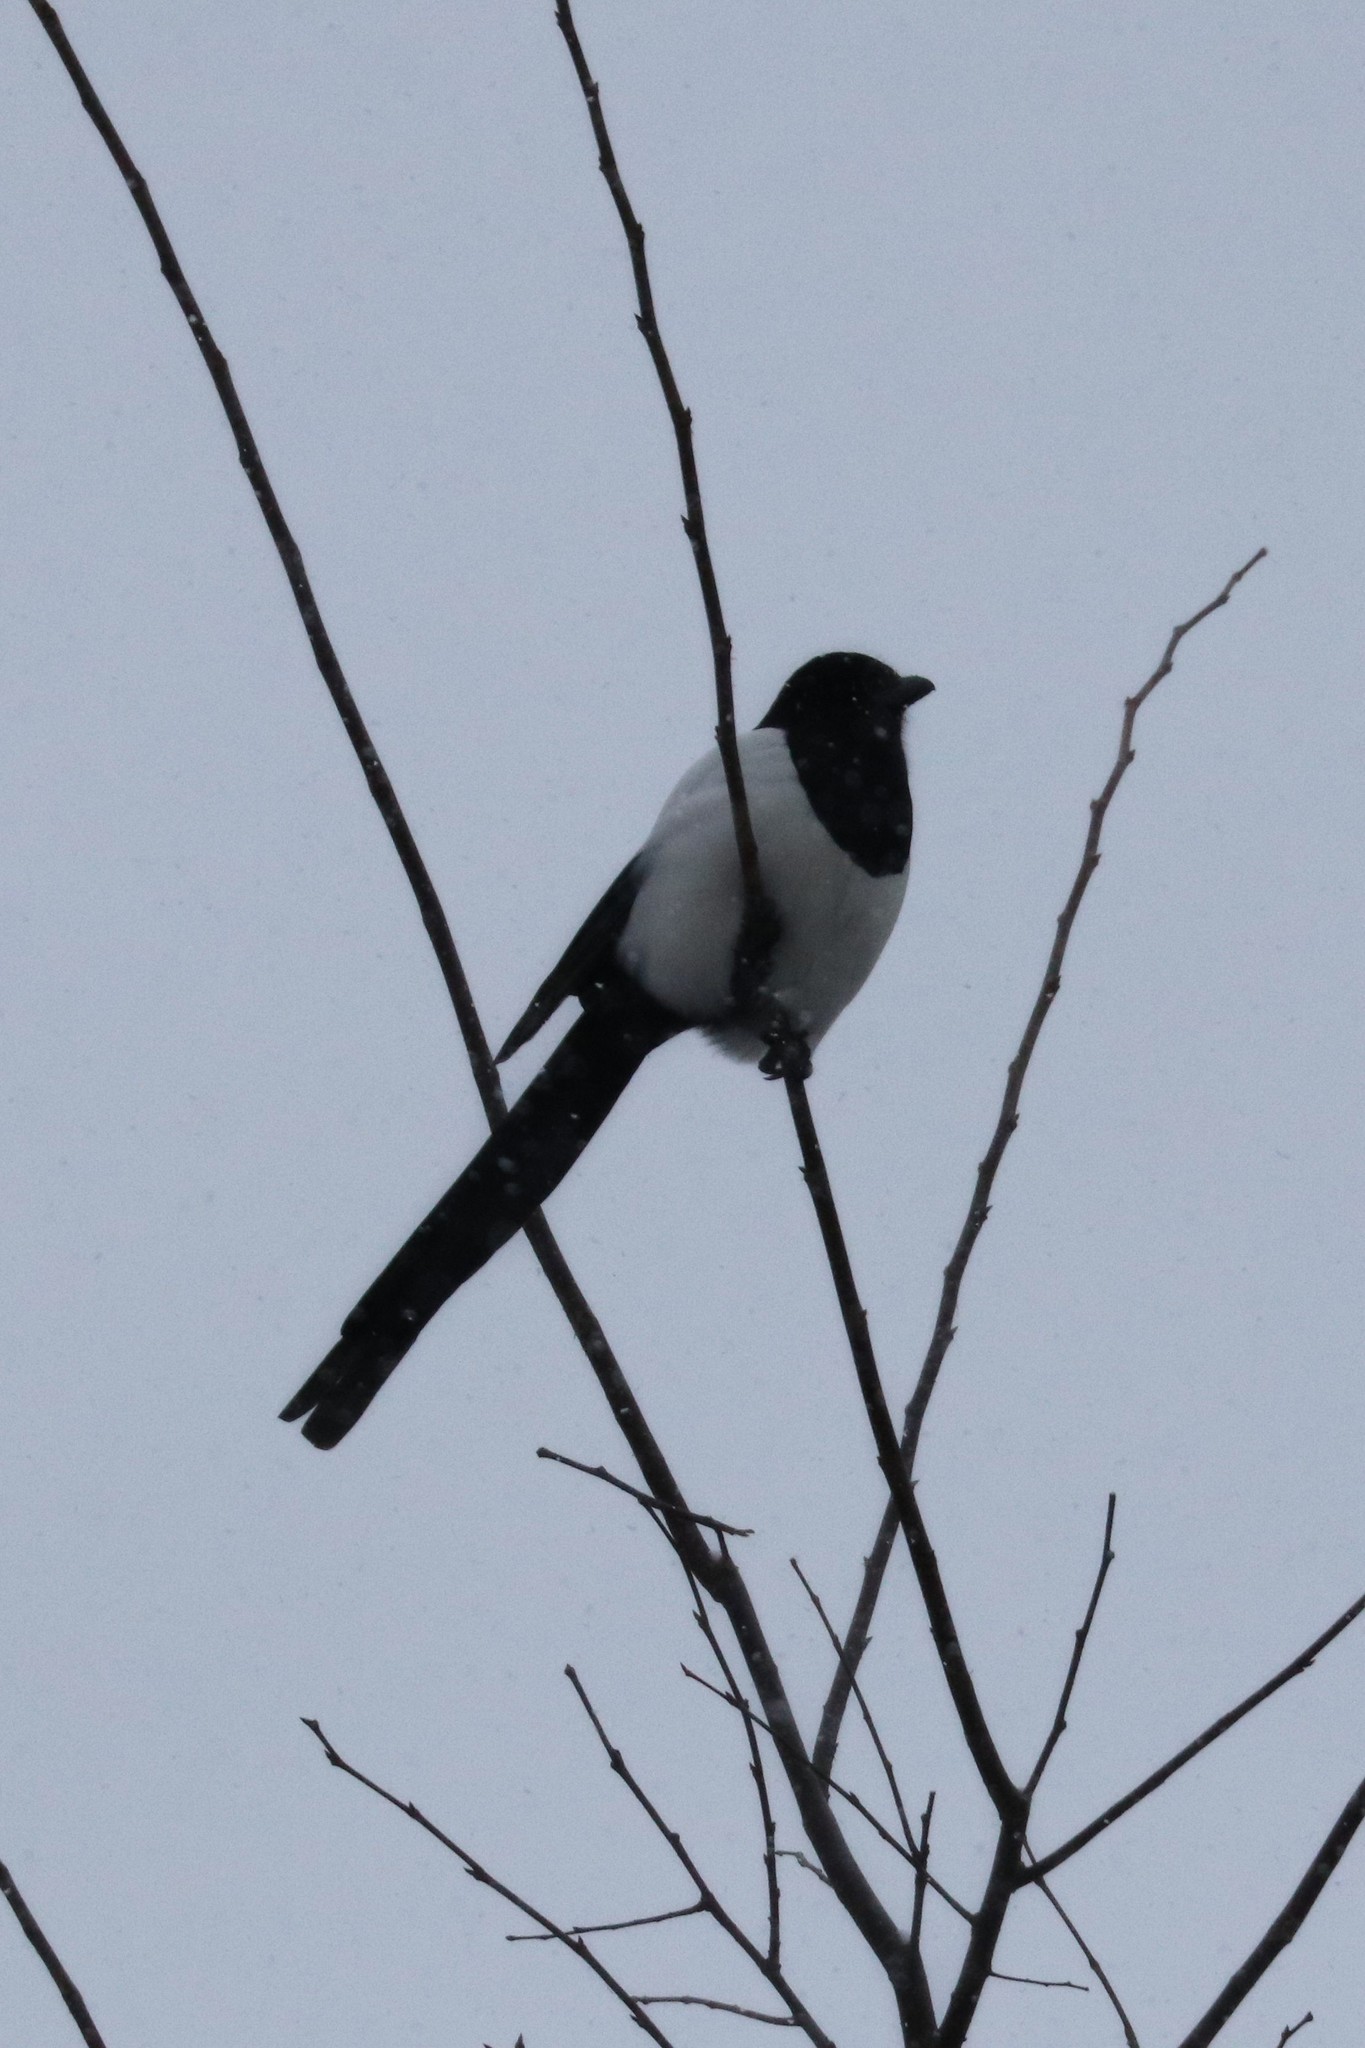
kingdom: Animalia
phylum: Chordata
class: Aves
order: Passeriformes
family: Corvidae
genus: Pica
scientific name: Pica pica
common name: Eurasian magpie
